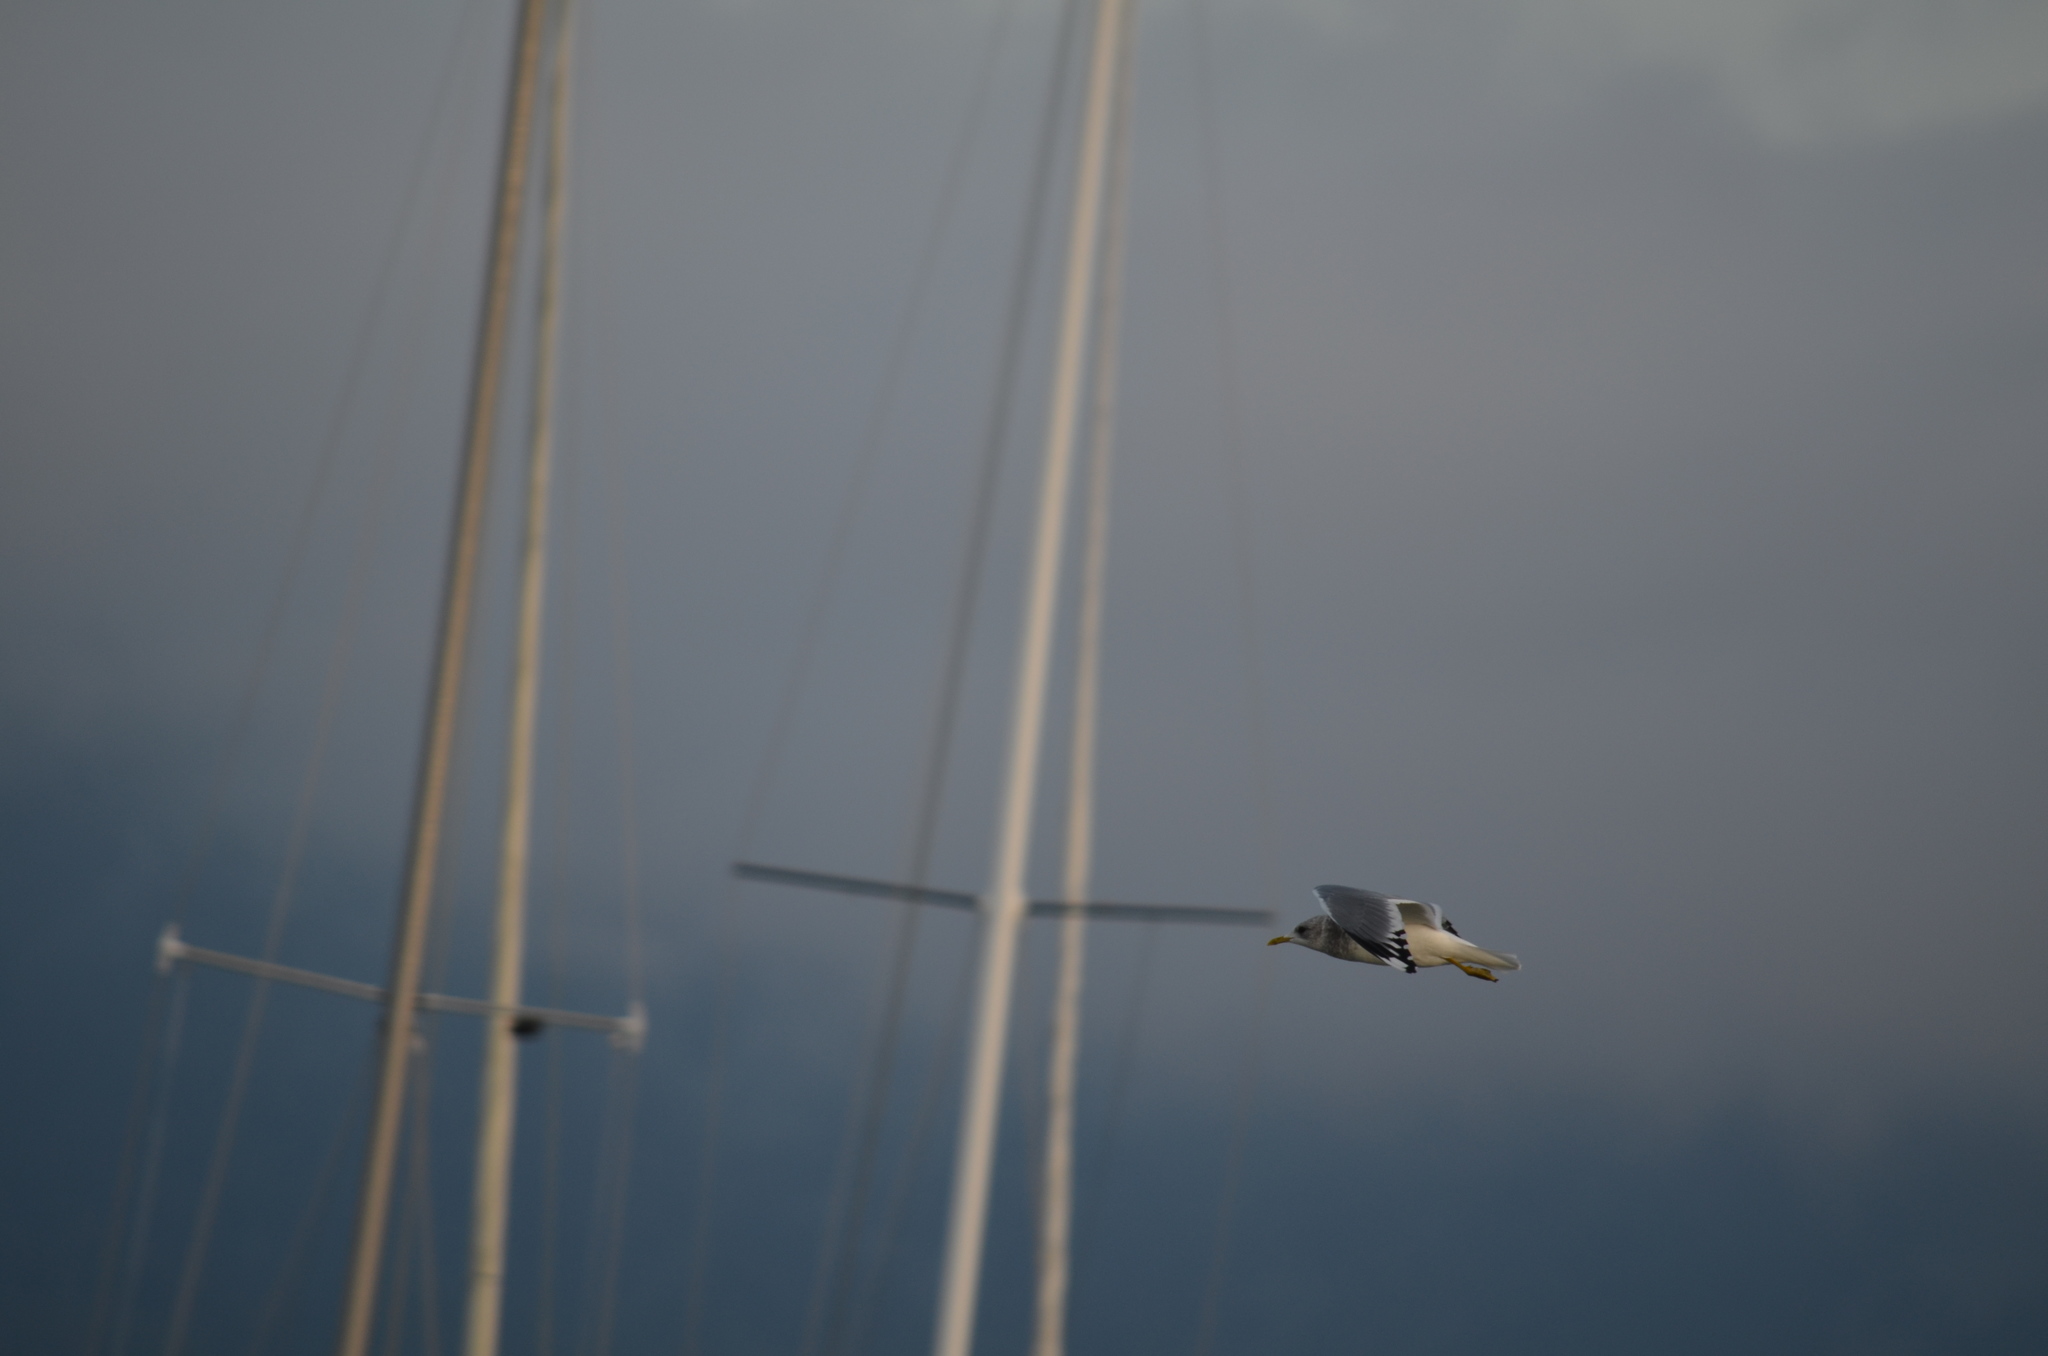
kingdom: Animalia
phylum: Chordata
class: Aves
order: Charadriiformes
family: Laridae
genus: Larus
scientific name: Larus brachyrhynchus
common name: Short-billed gull
